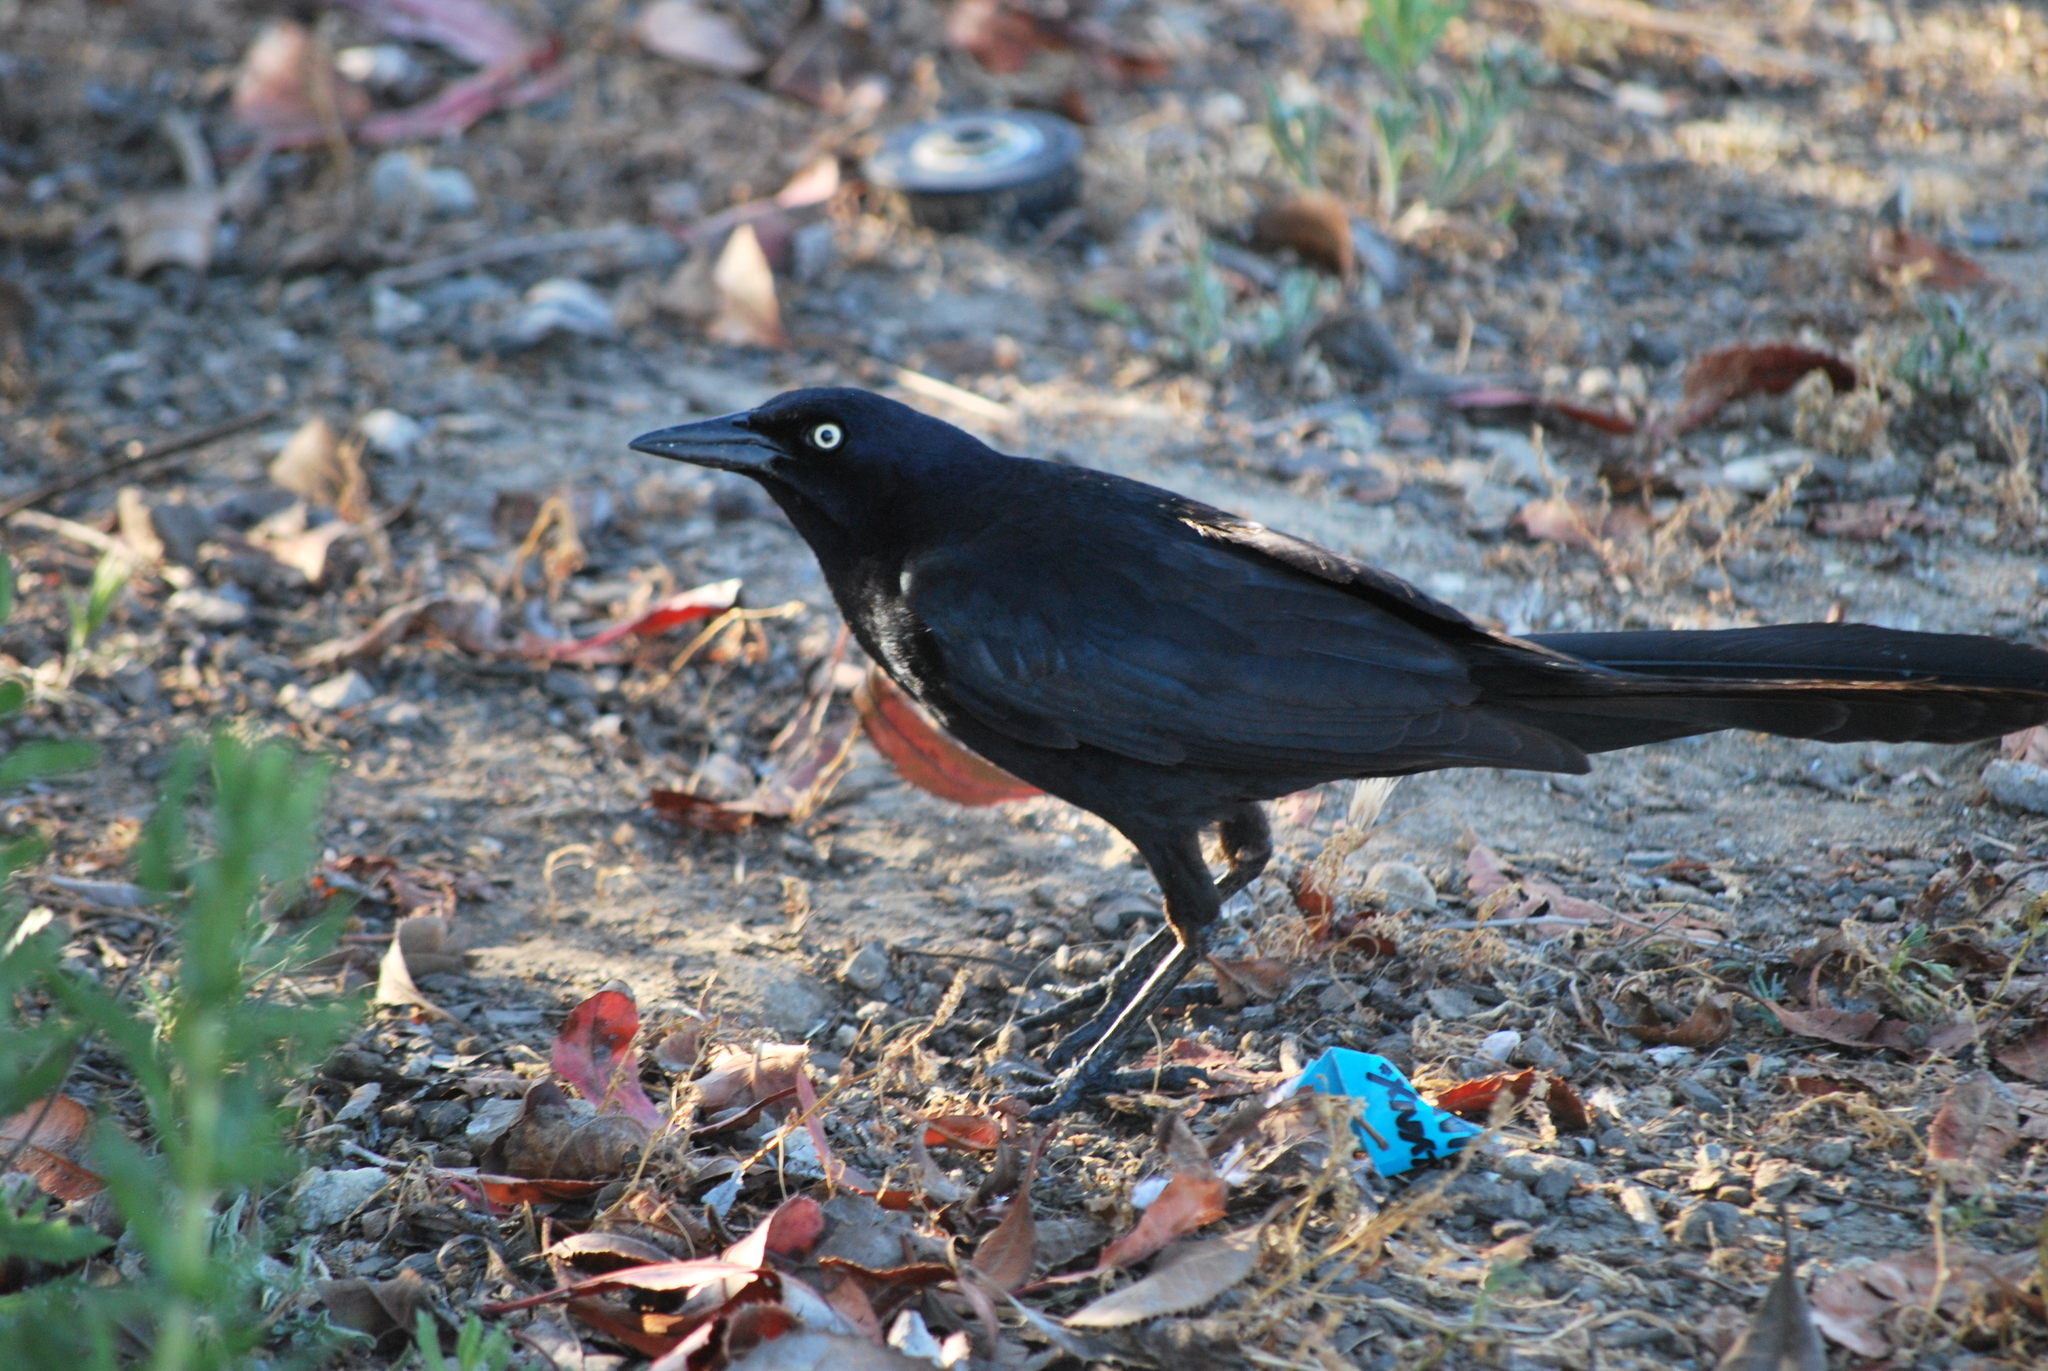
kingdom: Animalia
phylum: Chordata
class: Aves
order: Passeriformes
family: Icteridae
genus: Quiscalus
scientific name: Quiscalus mexicanus
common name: Great-tailed grackle
